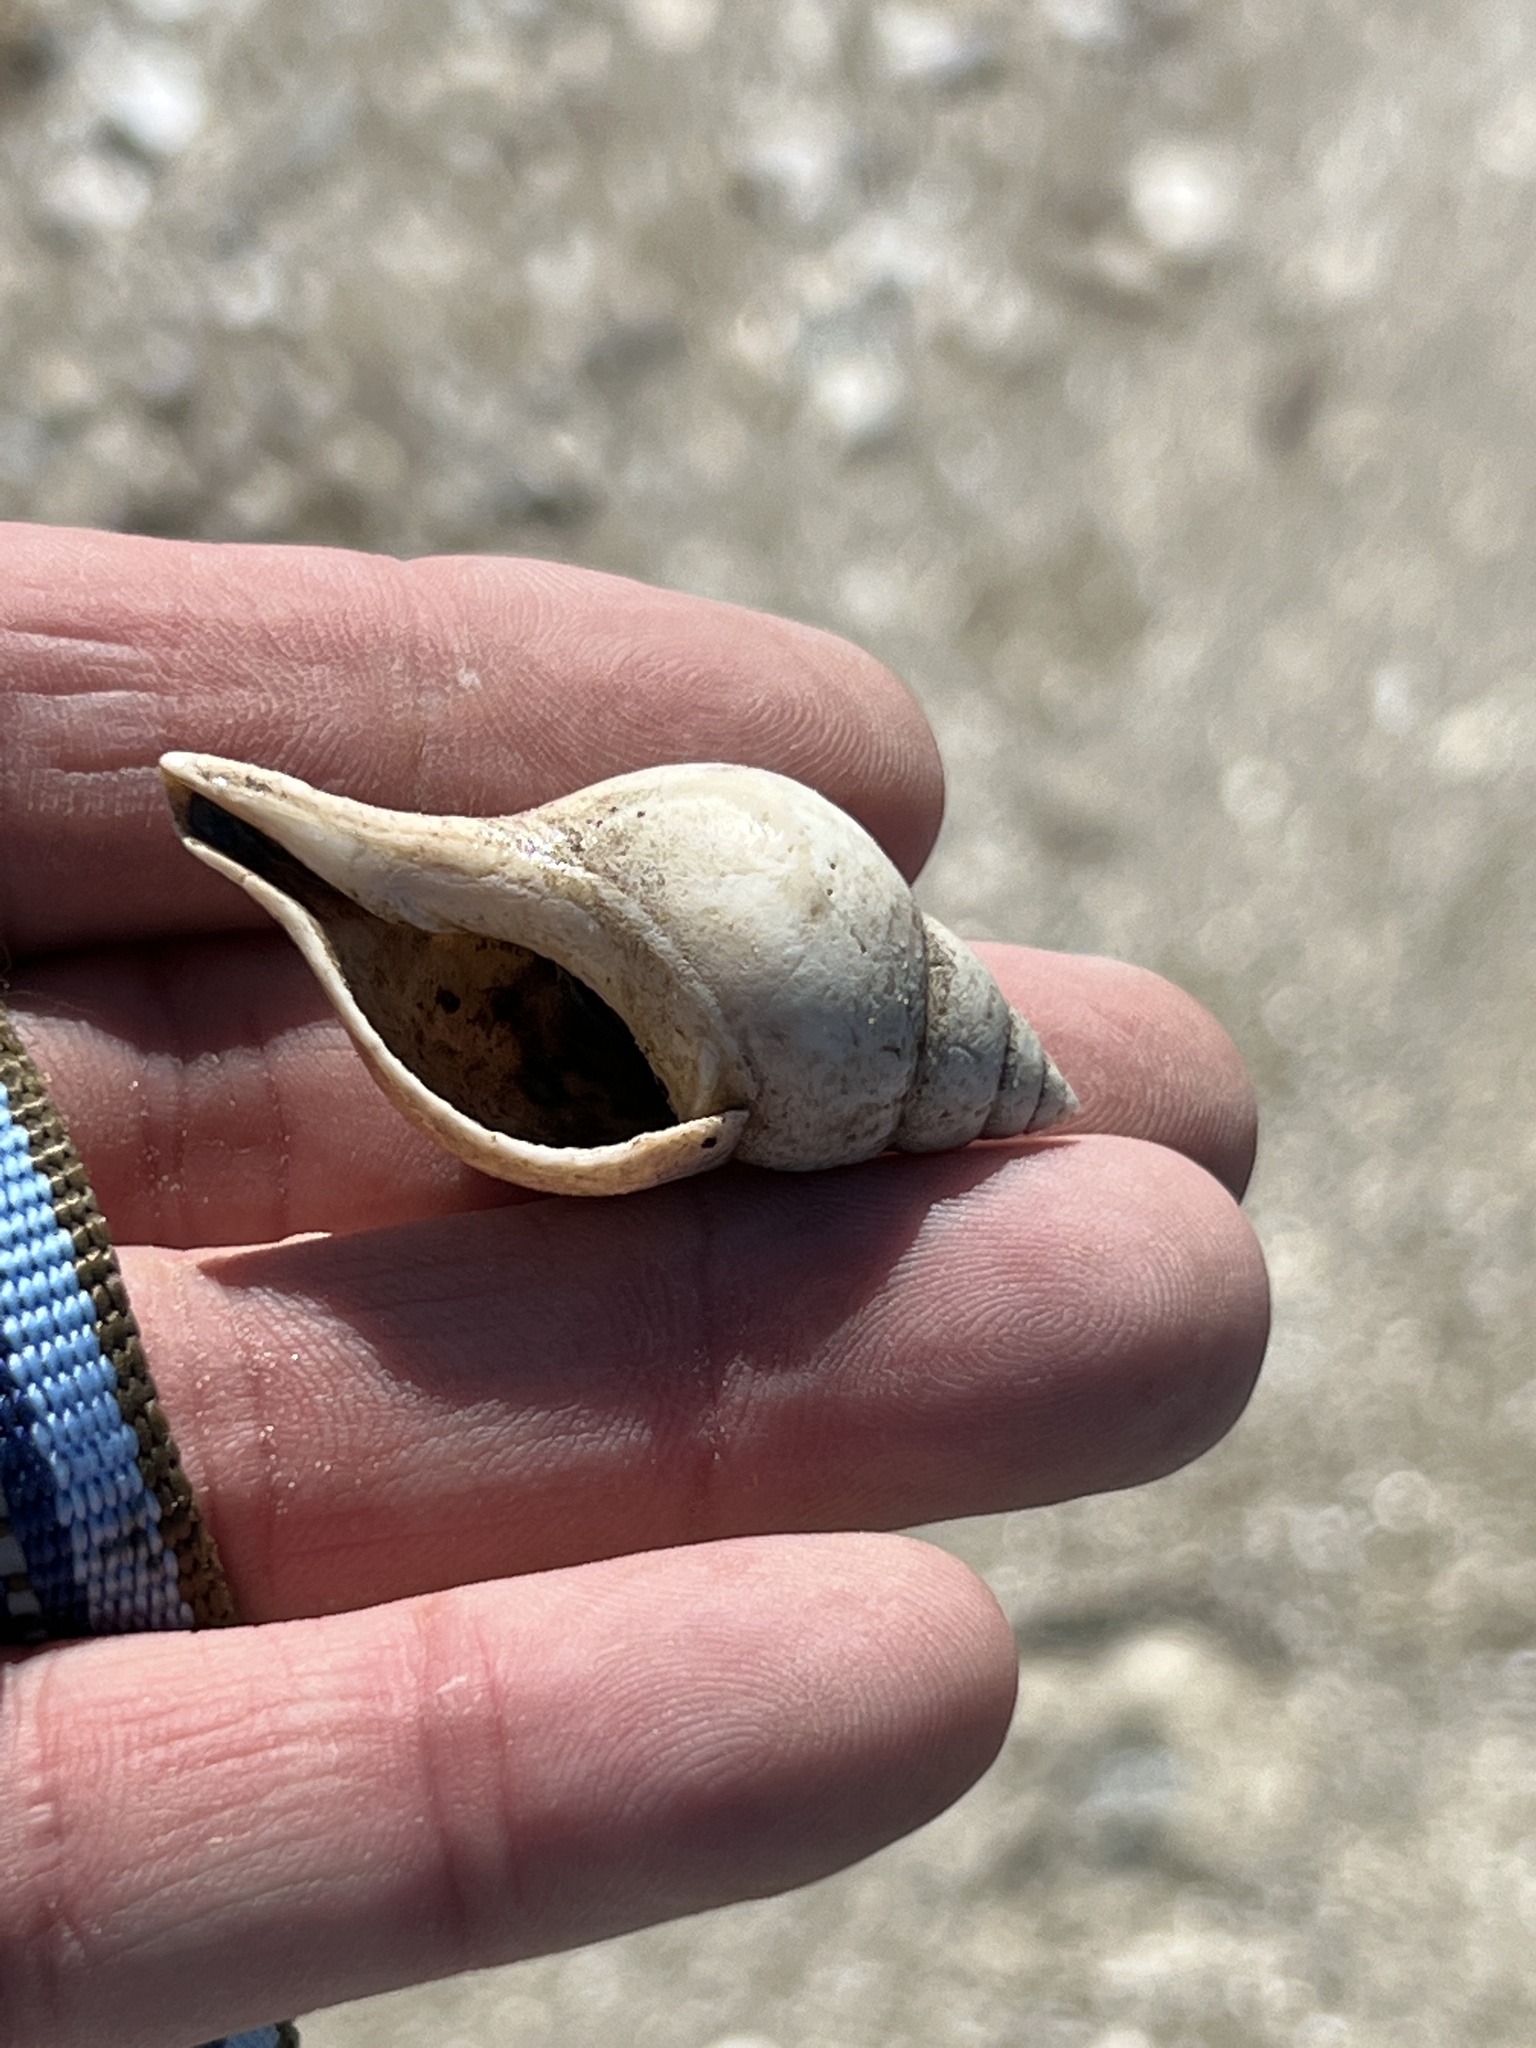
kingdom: Animalia
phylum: Mollusca
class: Gastropoda
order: Neogastropoda
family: Fasciolariidae
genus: Cinctura
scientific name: Cinctura lilium
